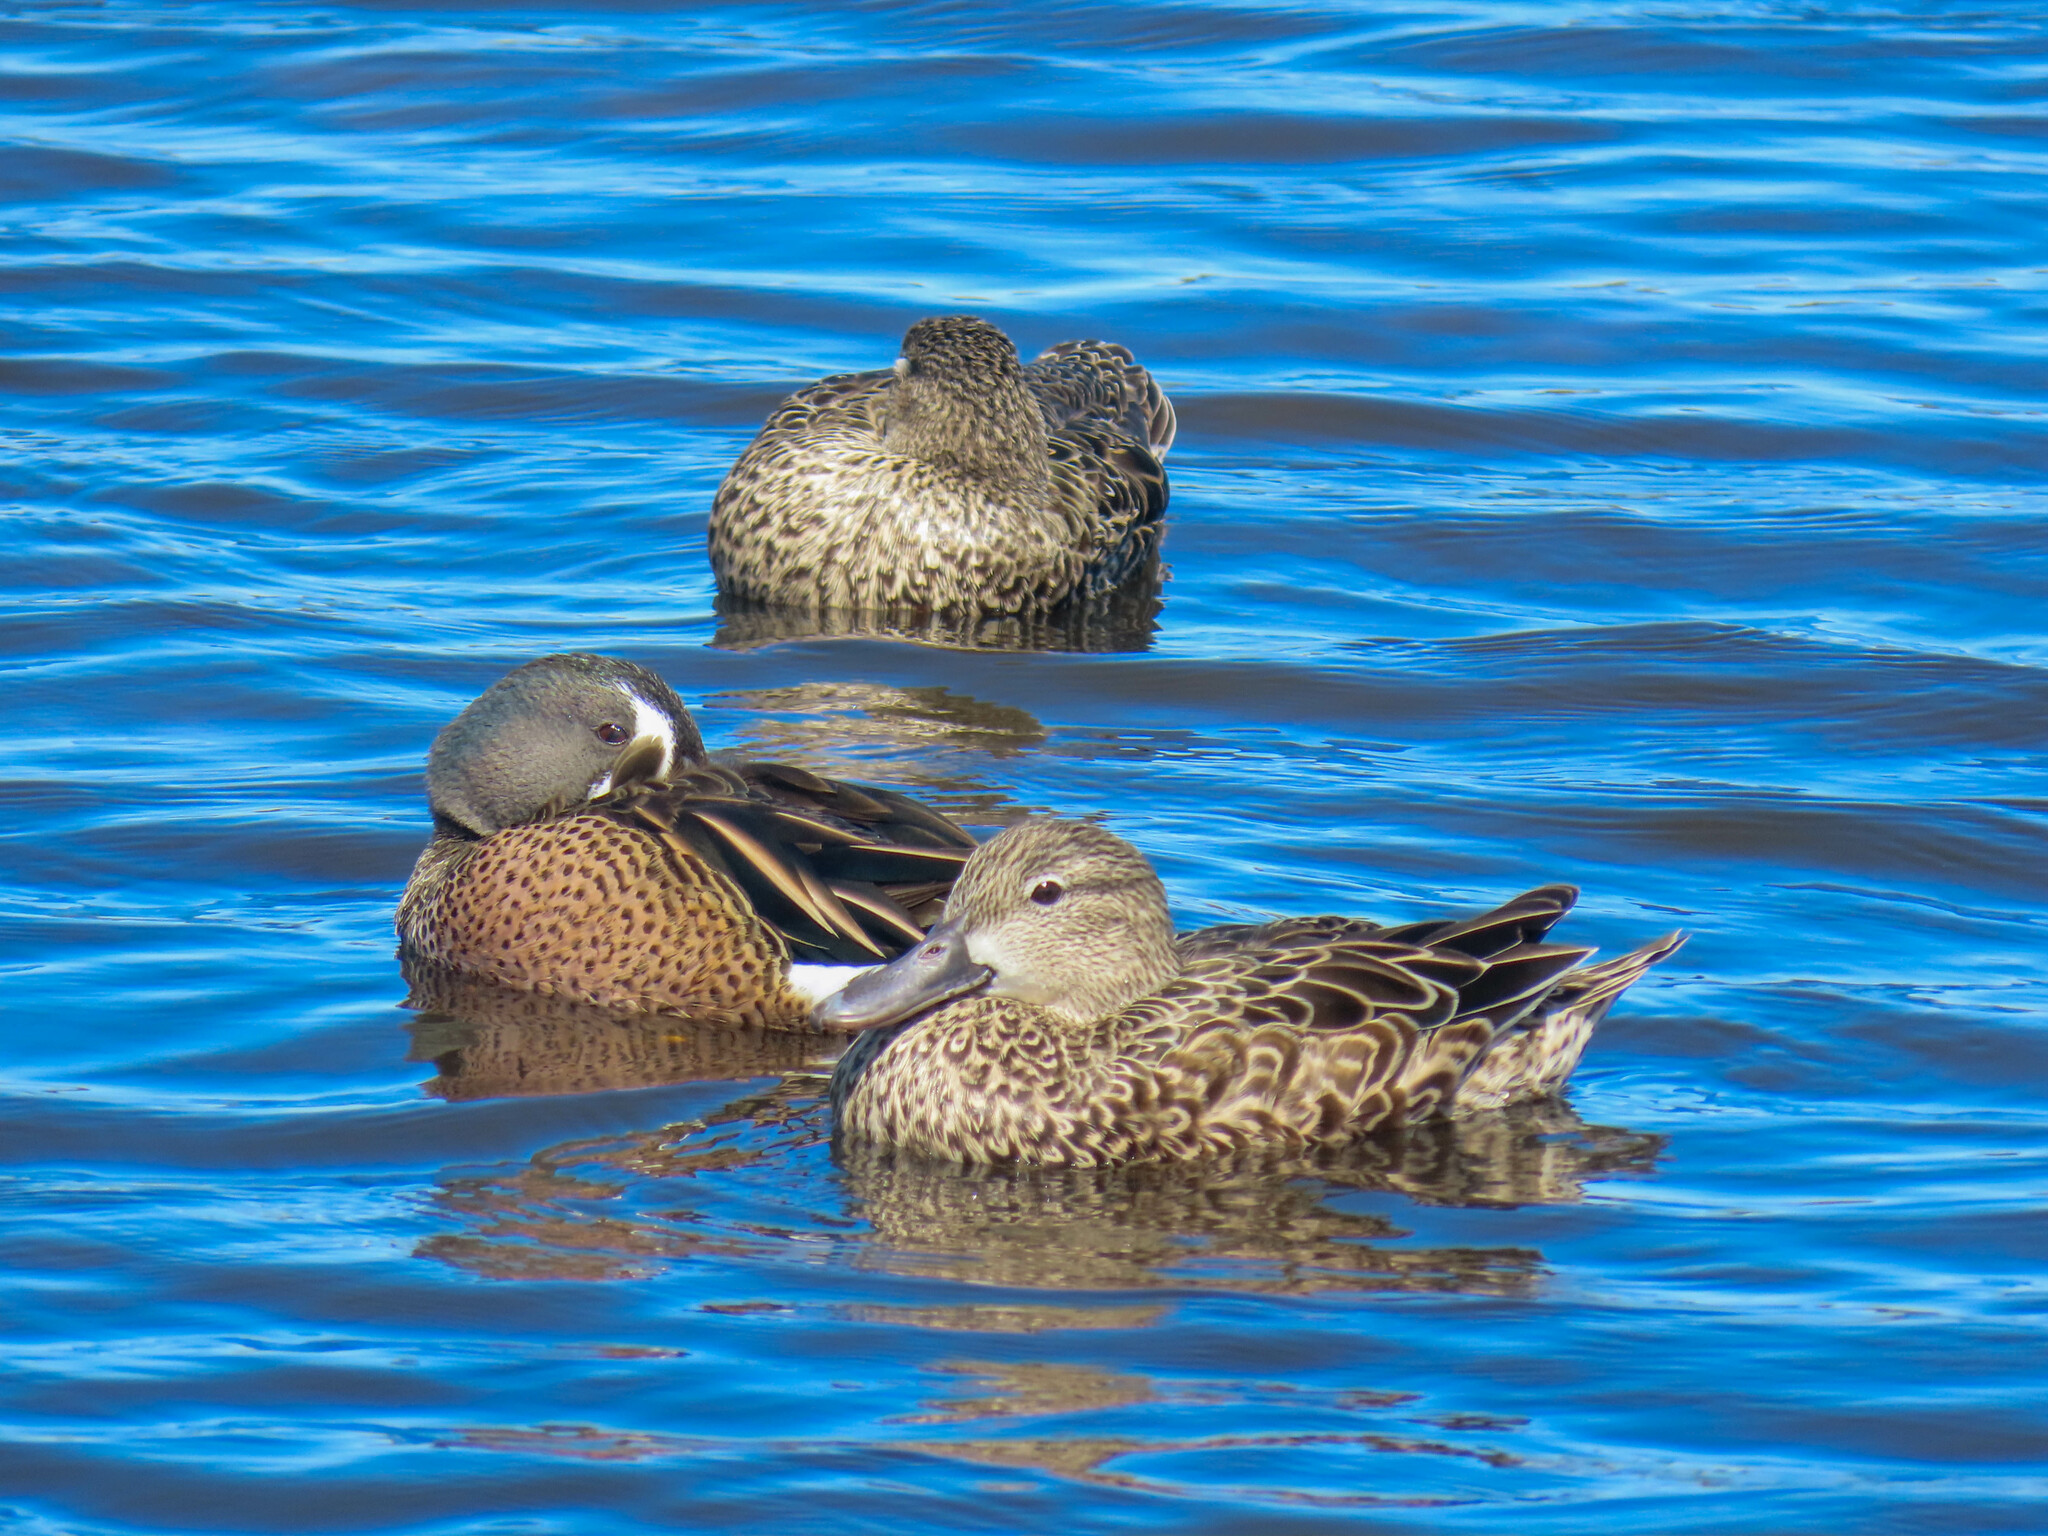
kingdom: Animalia
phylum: Chordata
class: Aves
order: Anseriformes
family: Anatidae
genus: Spatula
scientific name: Spatula discors
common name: Blue-winged teal
